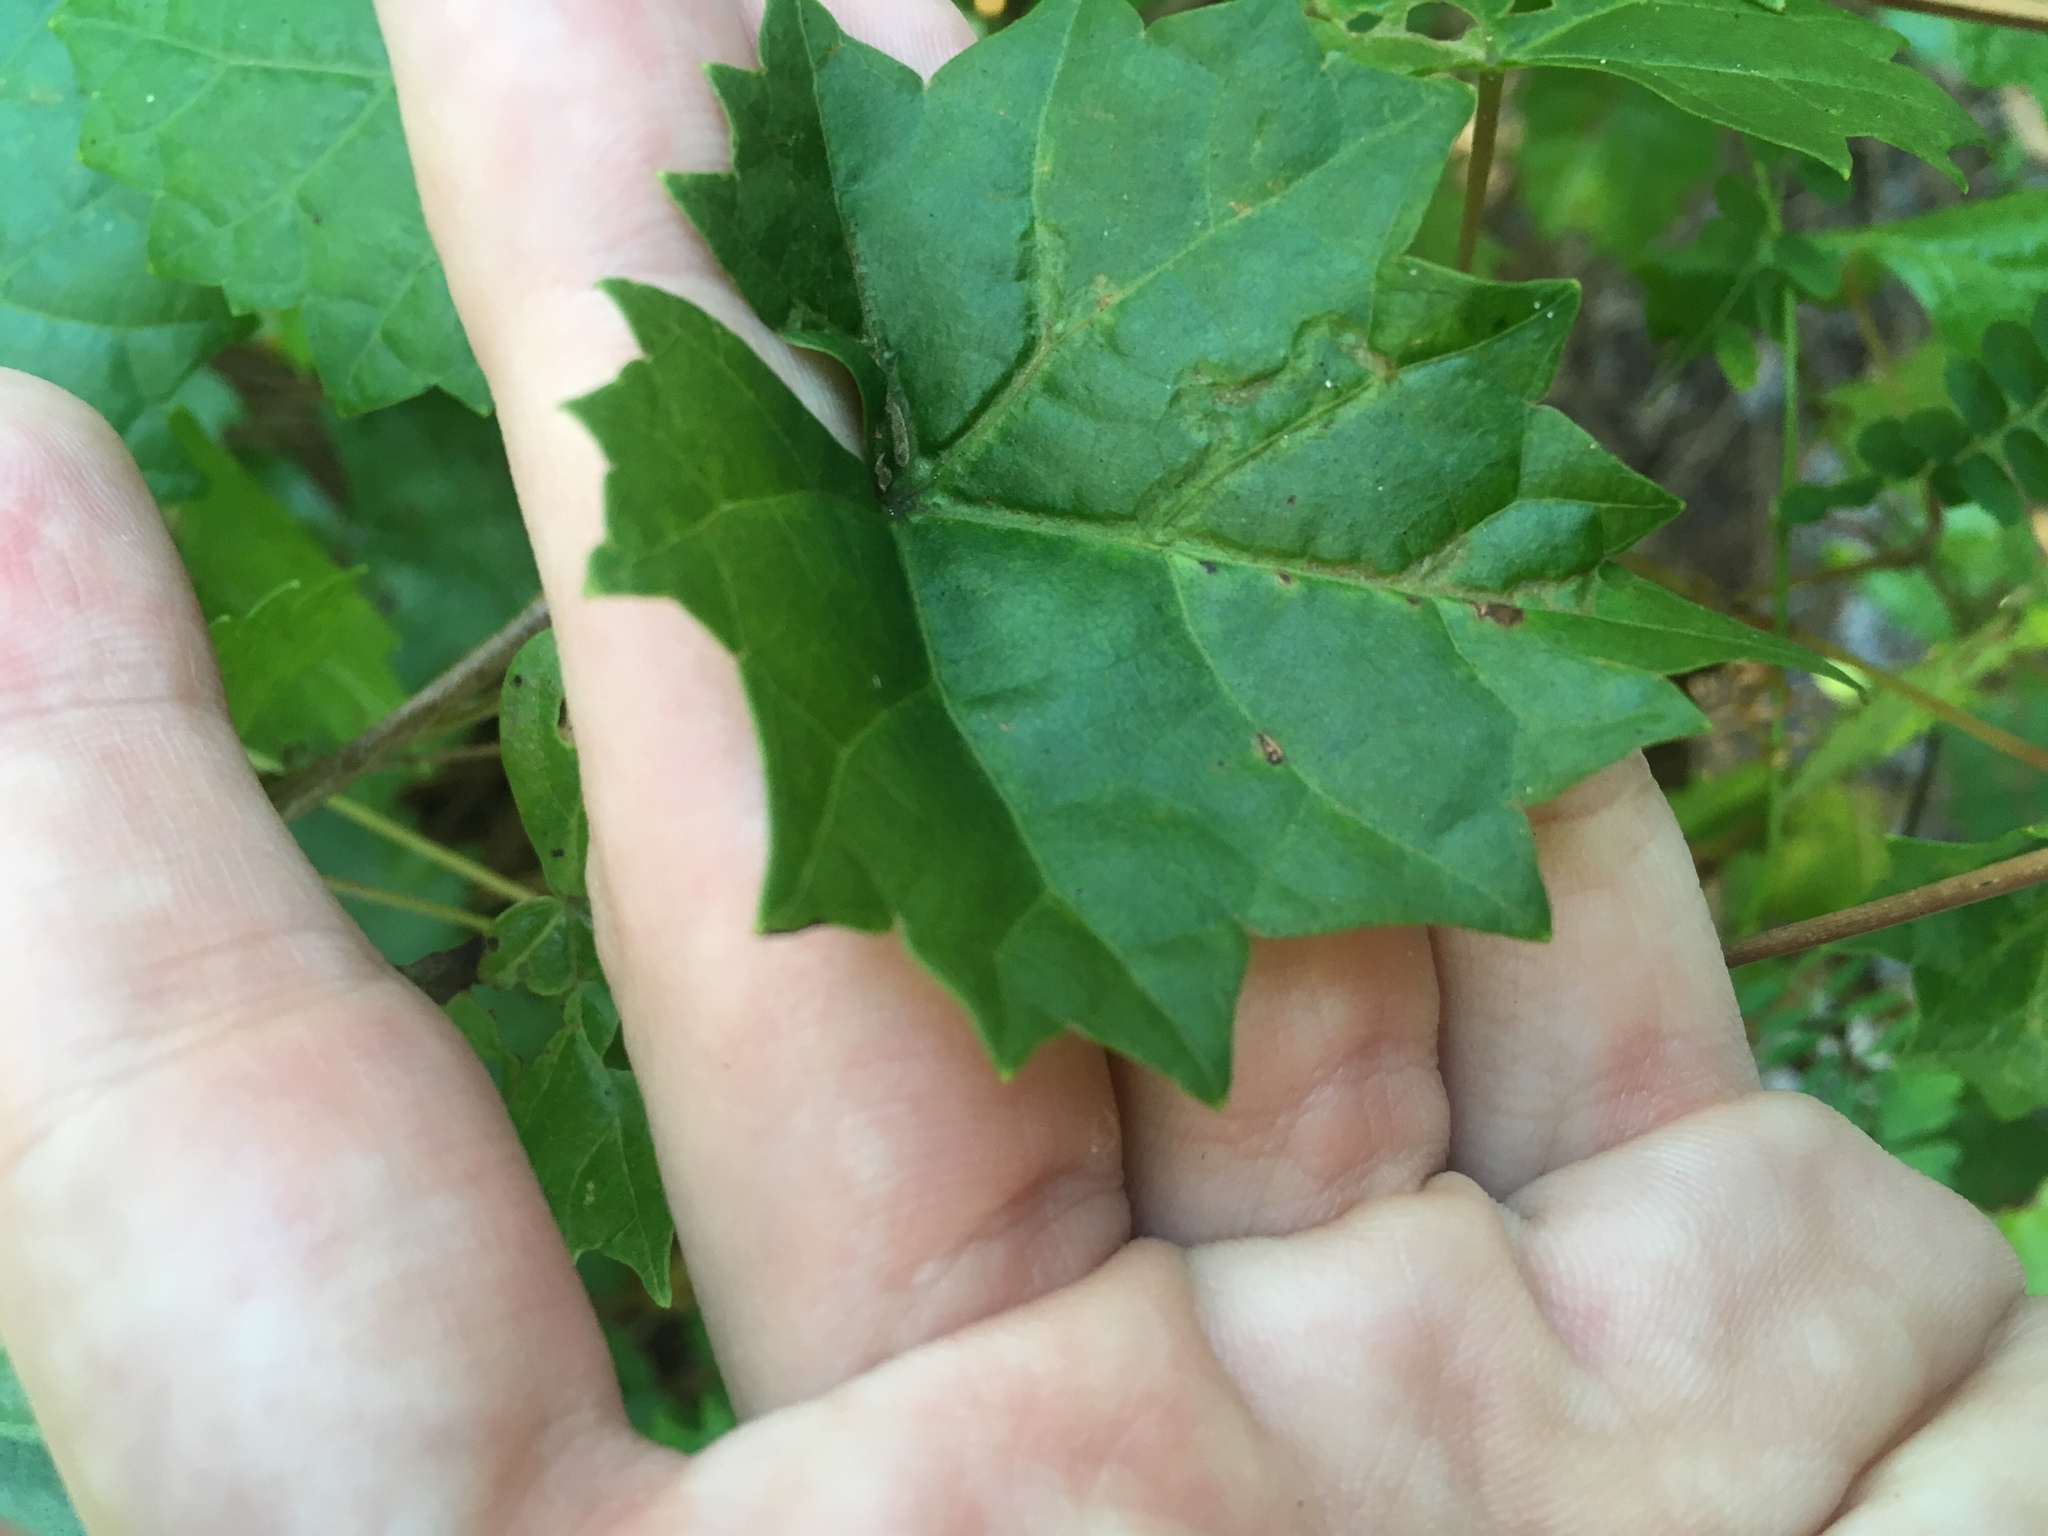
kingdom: Animalia
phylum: Arthropoda
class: Insecta
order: Lepidoptera
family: Gracillariidae
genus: Phyllocnistis
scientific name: Phyllocnistis vitegenella
